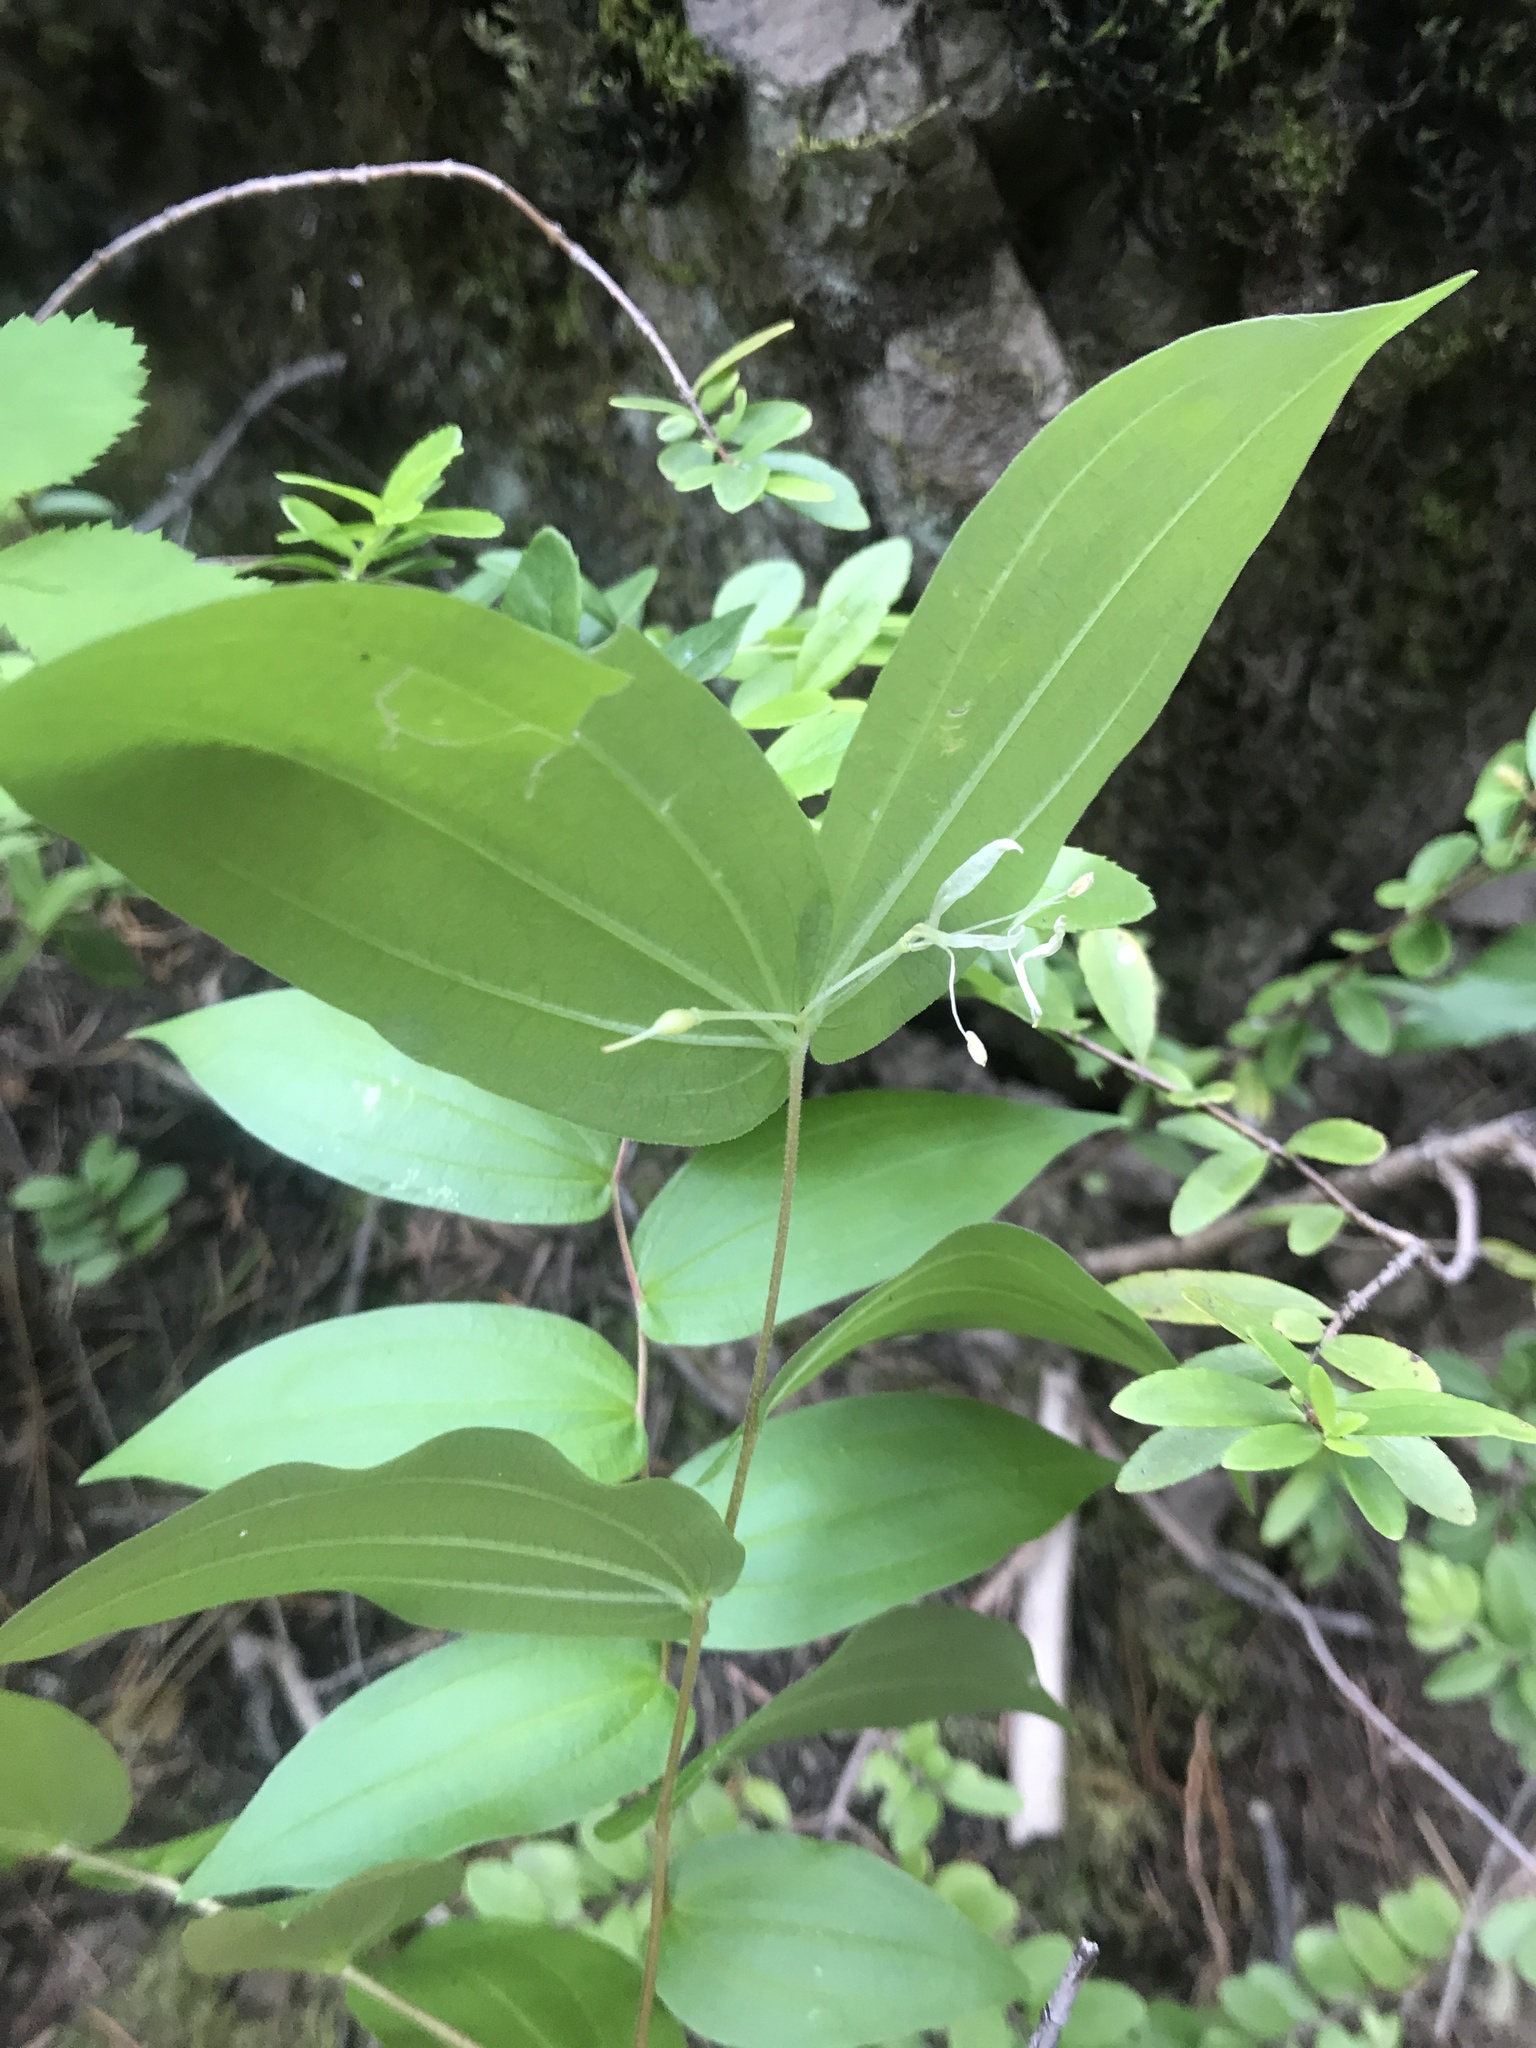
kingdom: Plantae
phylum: Tracheophyta
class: Liliopsida
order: Liliales
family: Liliaceae
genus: Prosartes
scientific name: Prosartes hookeri
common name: Fairy-bells
